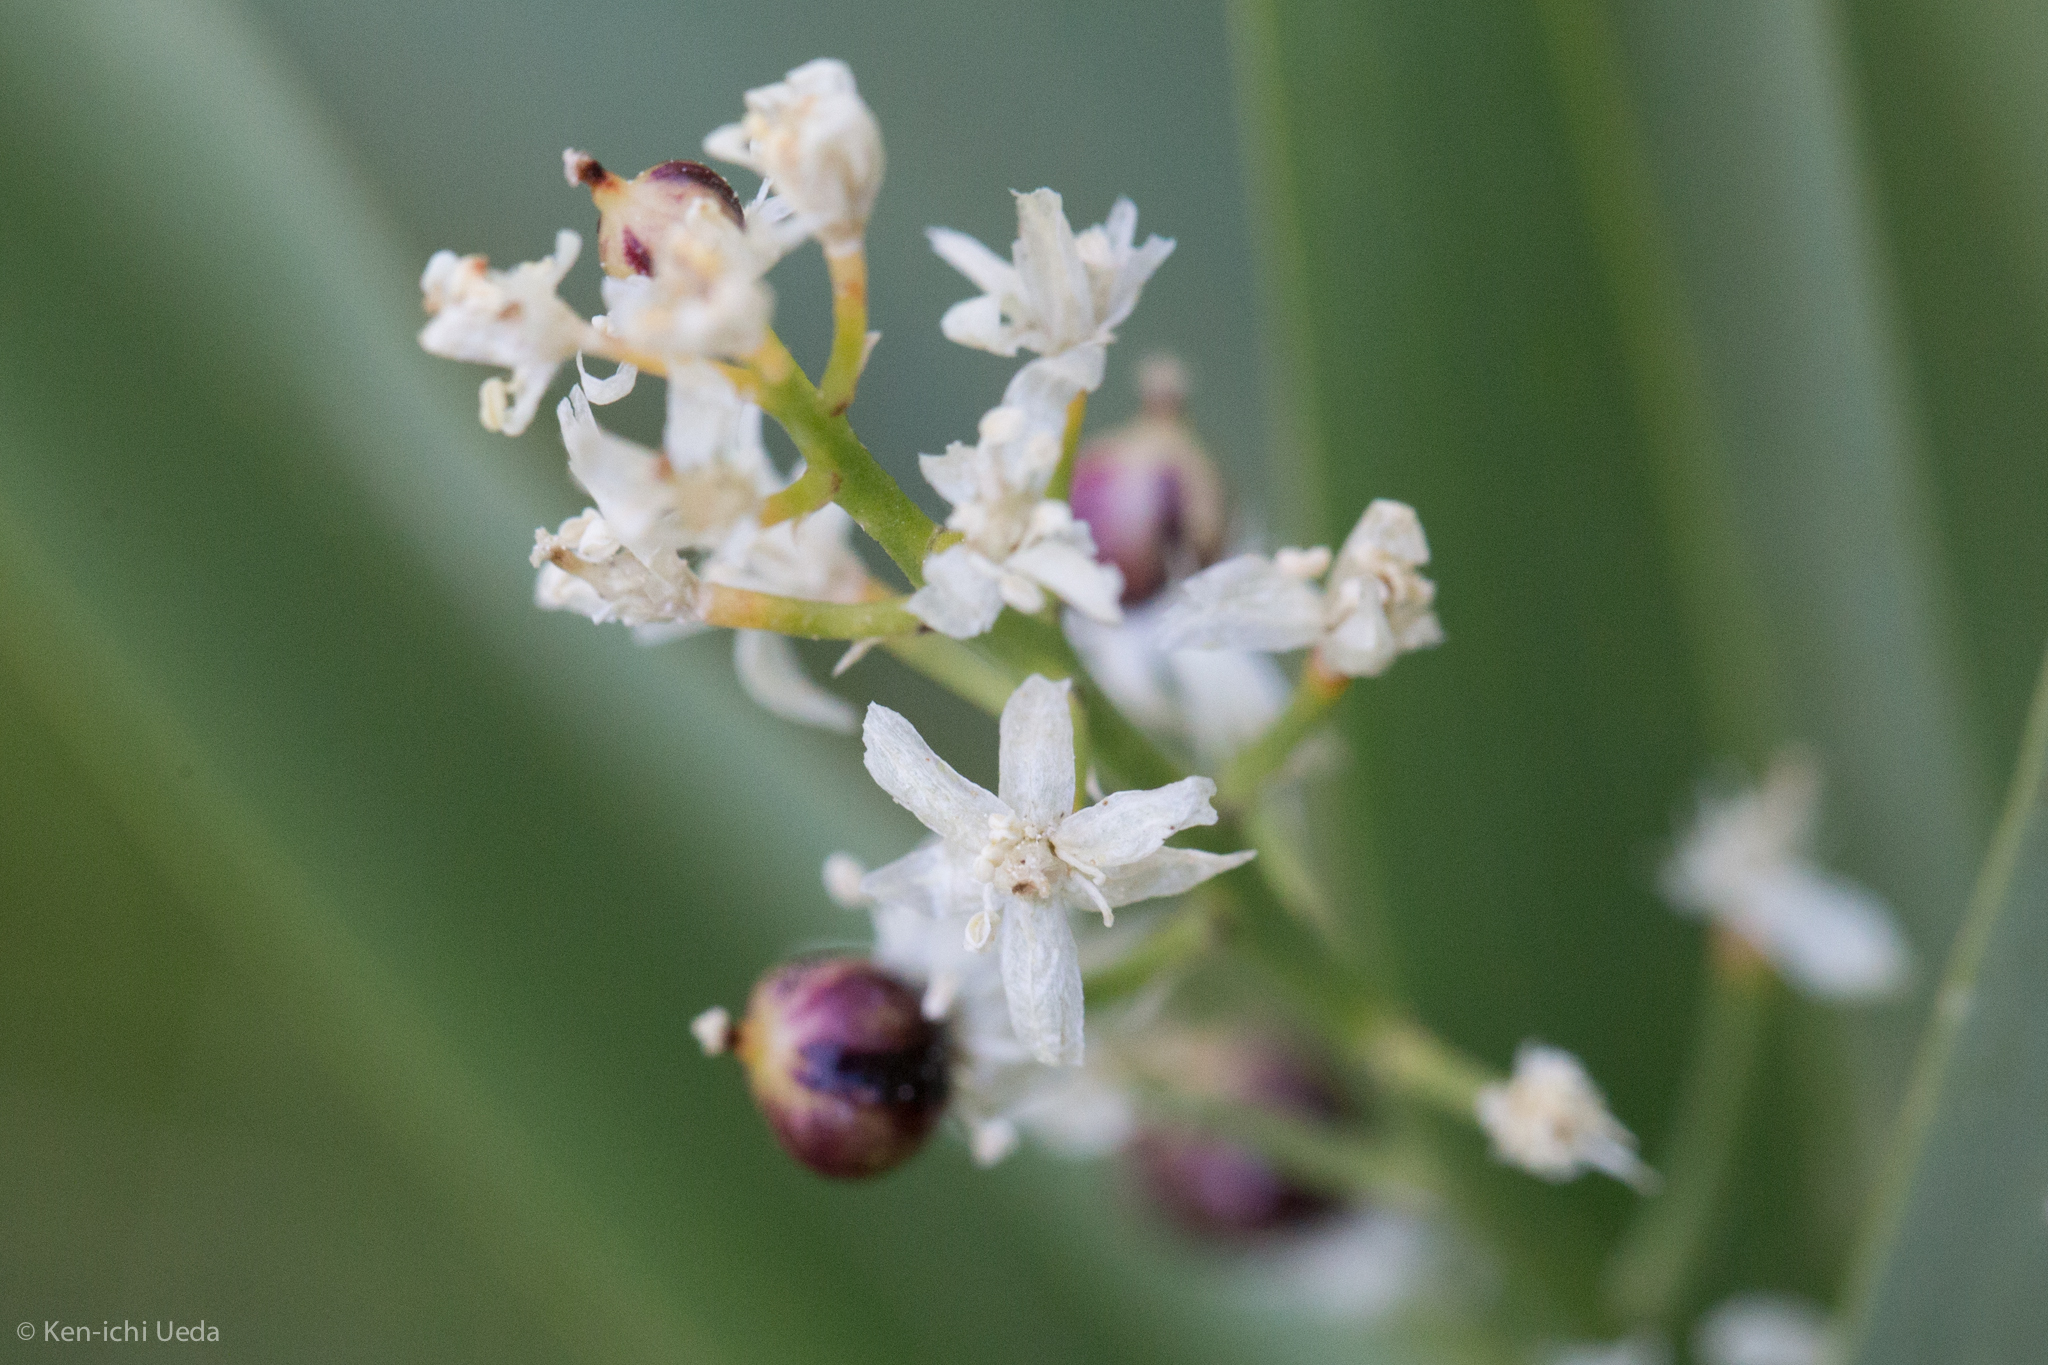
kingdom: Plantae
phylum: Tracheophyta
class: Liliopsida
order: Asparagales
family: Asparagaceae
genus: Maianthemum
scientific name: Maianthemum stellatum
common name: Little false solomon's seal
